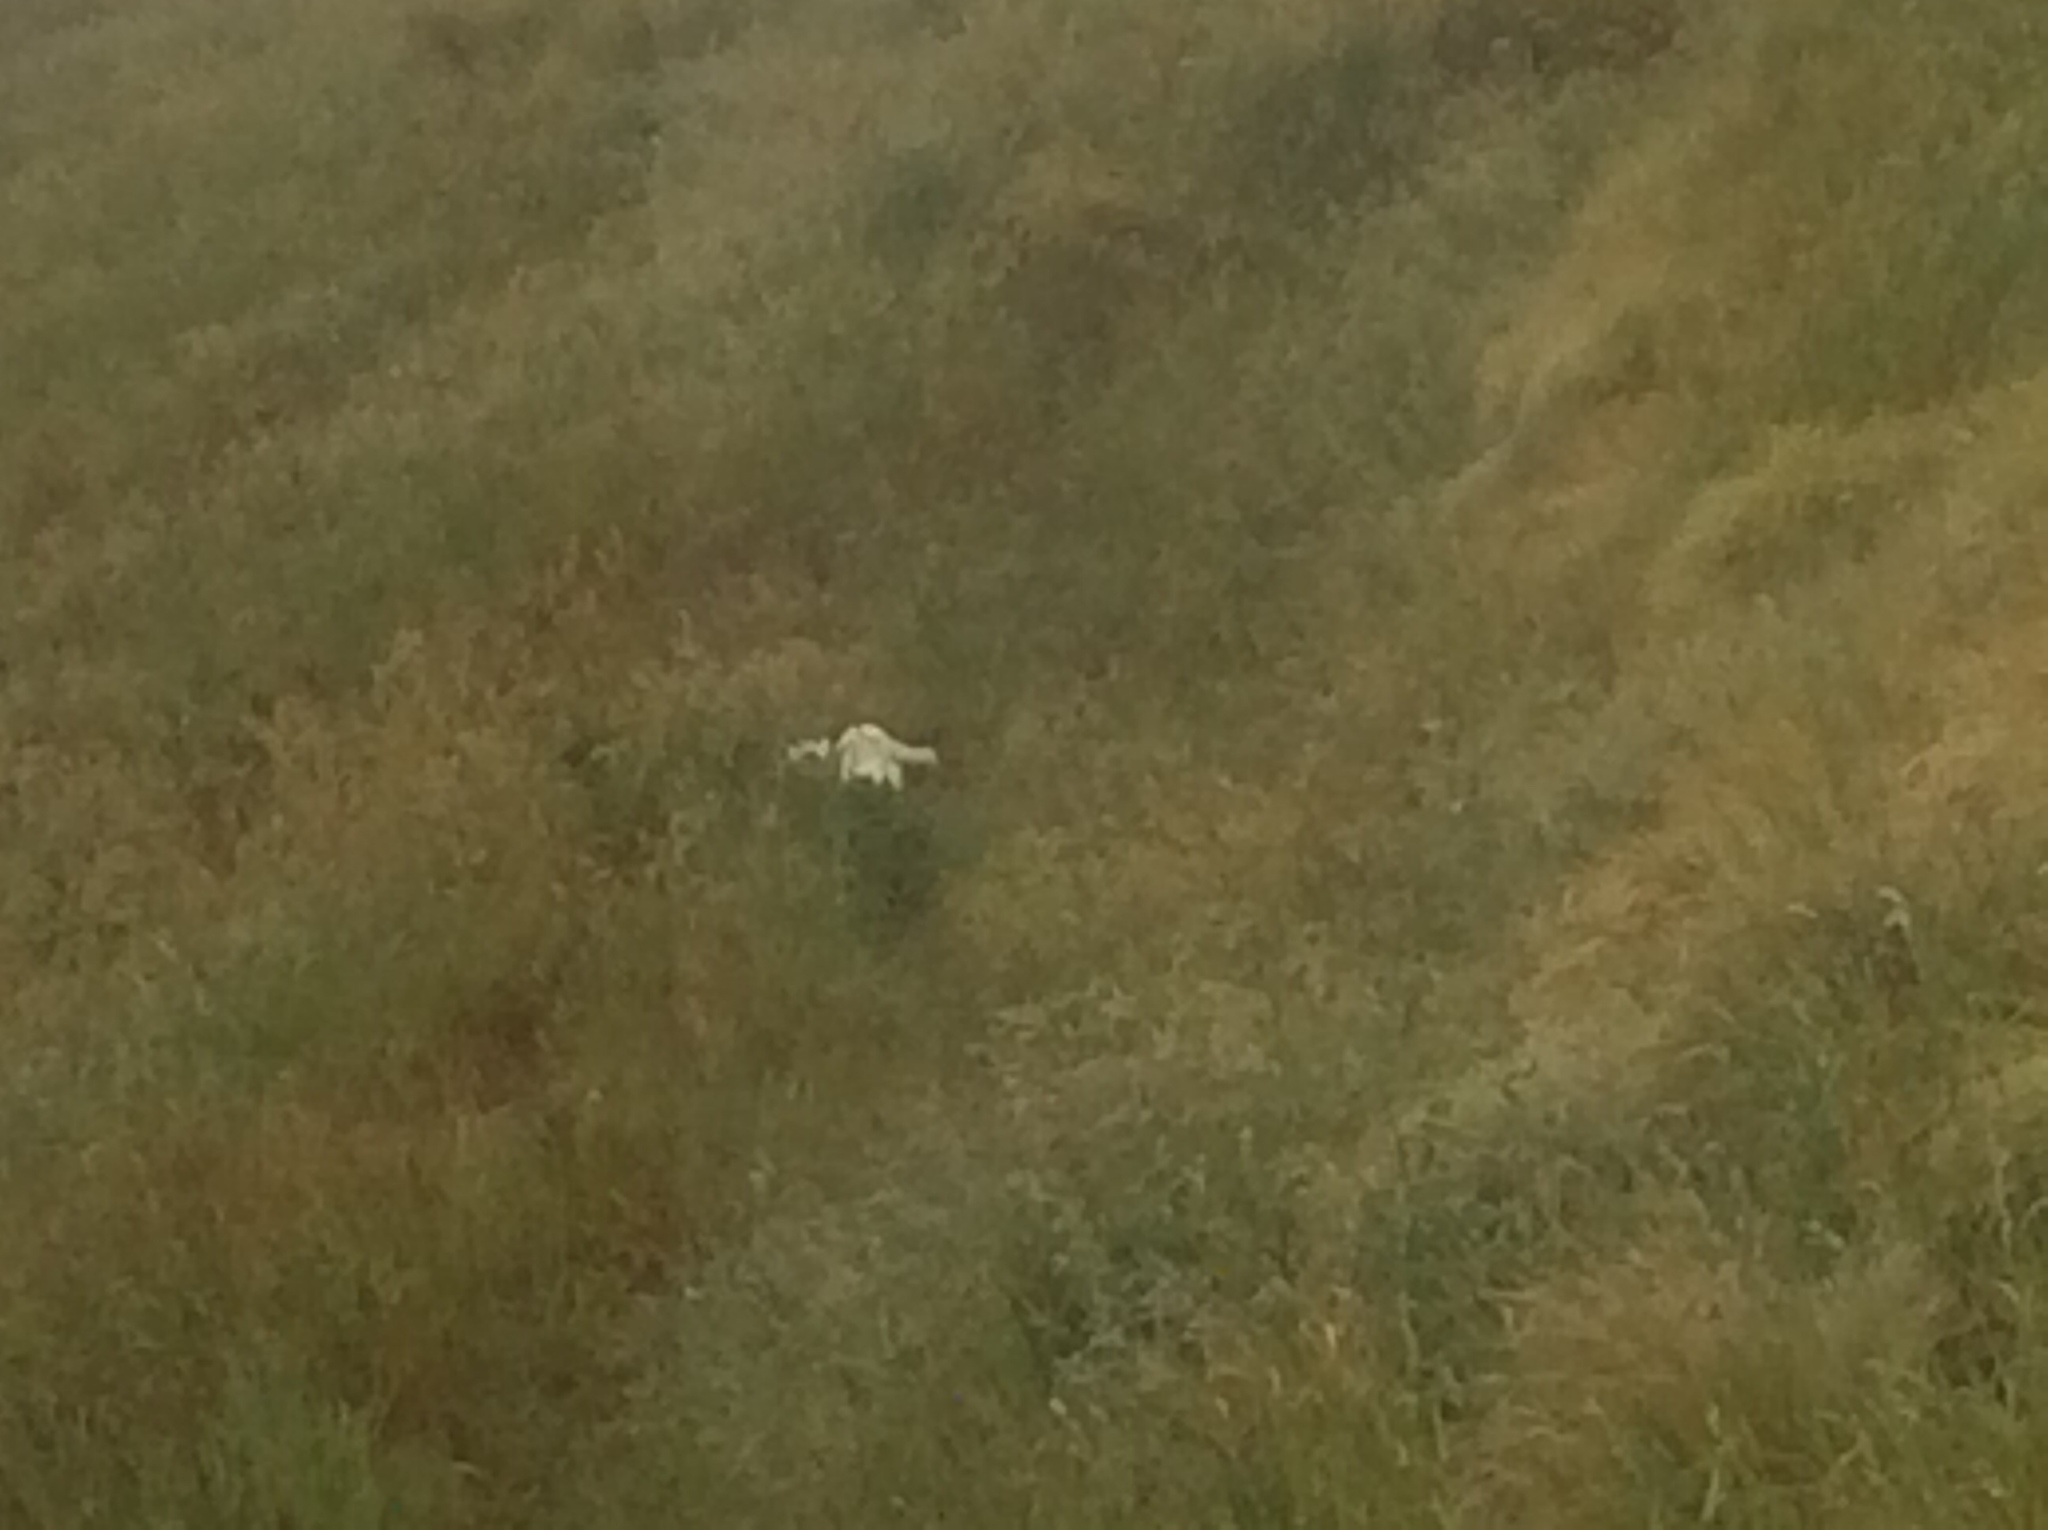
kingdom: Animalia
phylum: Chordata
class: Aves
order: Procellariiformes
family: Diomedeidae
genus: Diomedea
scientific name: Diomedea sanfordi
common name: Northern royal albatross
